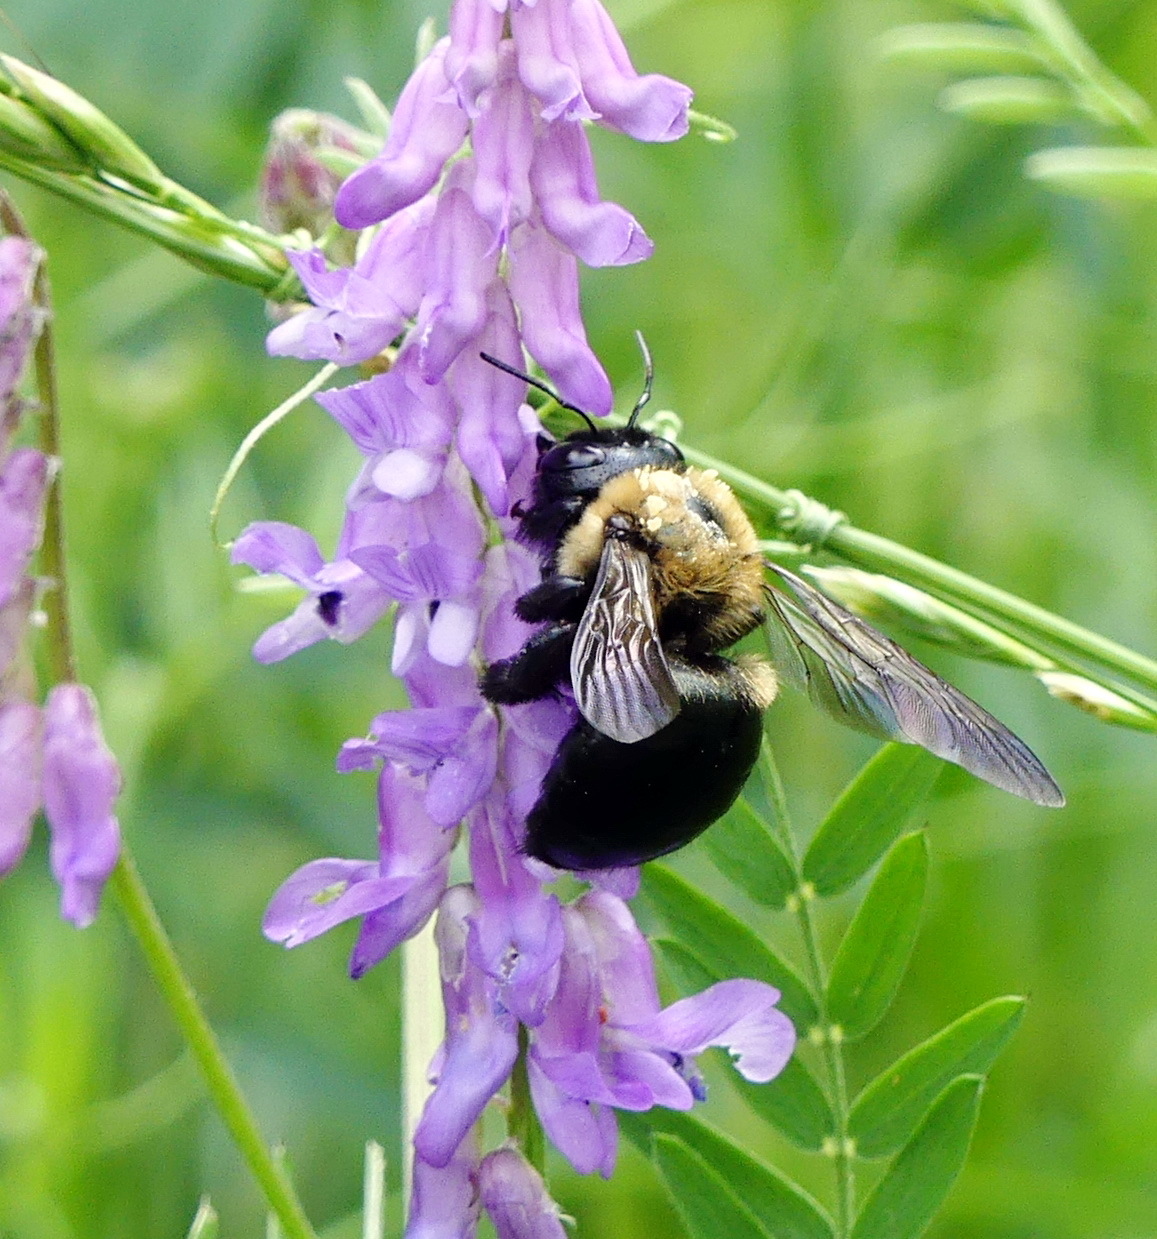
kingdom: Animalia
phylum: Arthropoda
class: Insecta
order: Hymenoptera
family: Apidae
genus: Xylocopa
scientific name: Xylocopa virginica
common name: Carpenter bee
